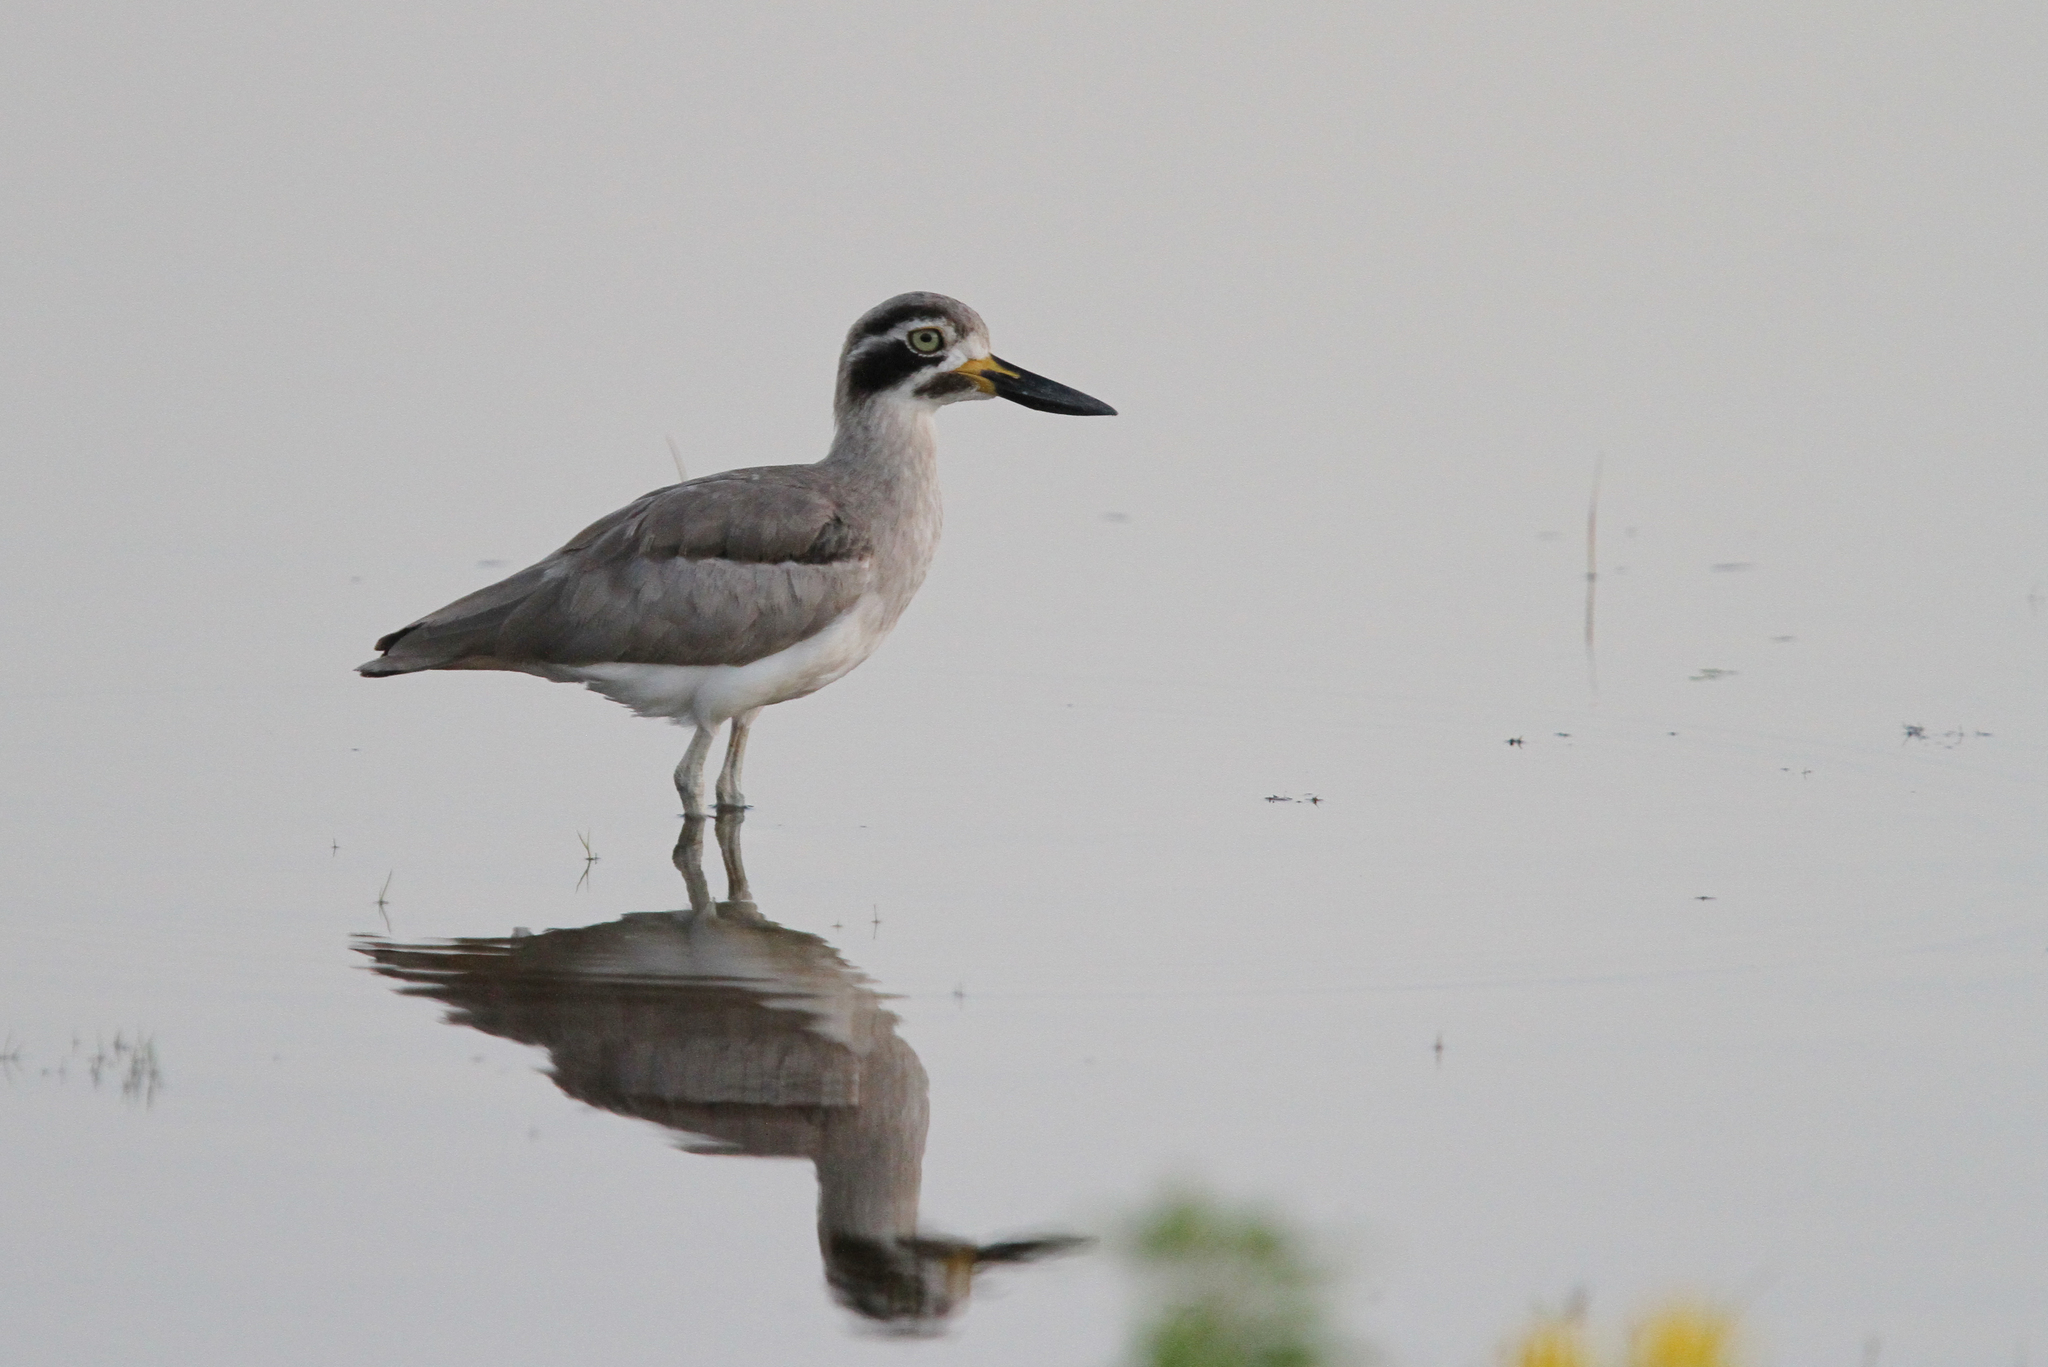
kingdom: Animalia
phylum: Chordata
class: Aves
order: Charadriiformes
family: Burhinidae
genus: Esacus
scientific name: Esacus recurvirostris
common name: Great stone-curlew
